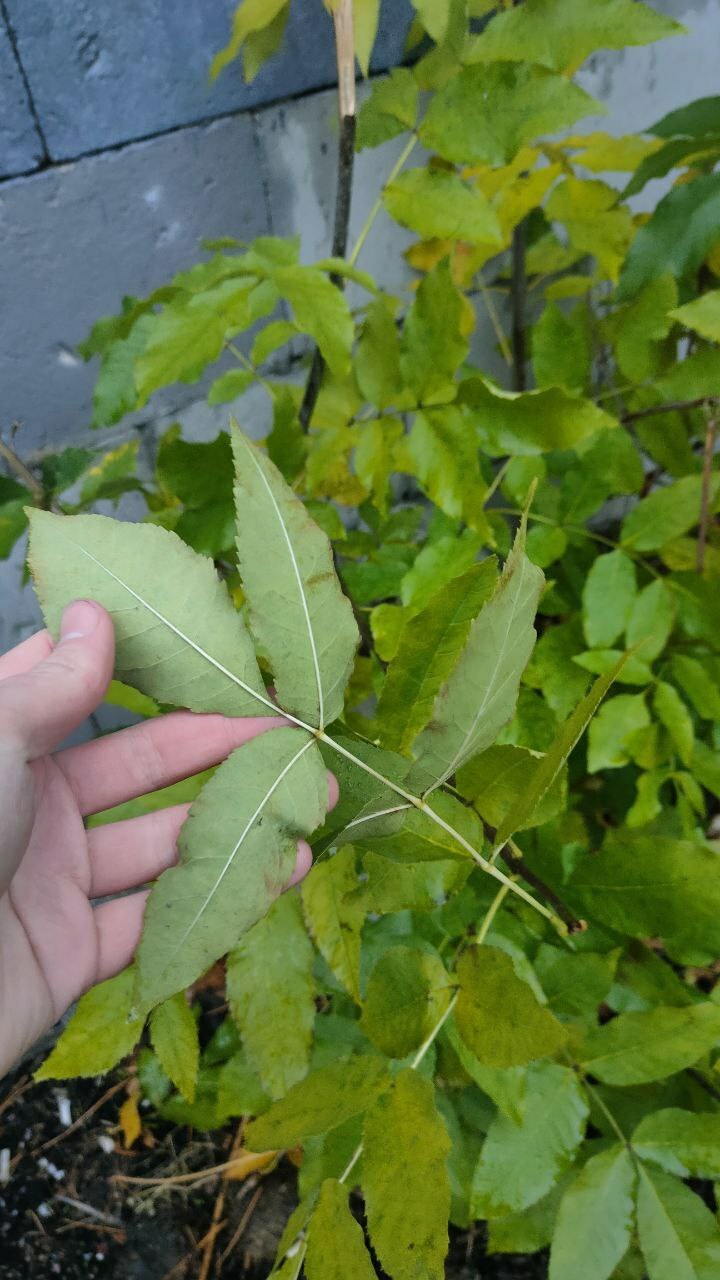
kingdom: Plantae
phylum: Tracheophyta
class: Magnoliopsida
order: Lamiales
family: Oleaceae
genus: Fraxinus
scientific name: Fraxinus pennsylvanica
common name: Green ash
